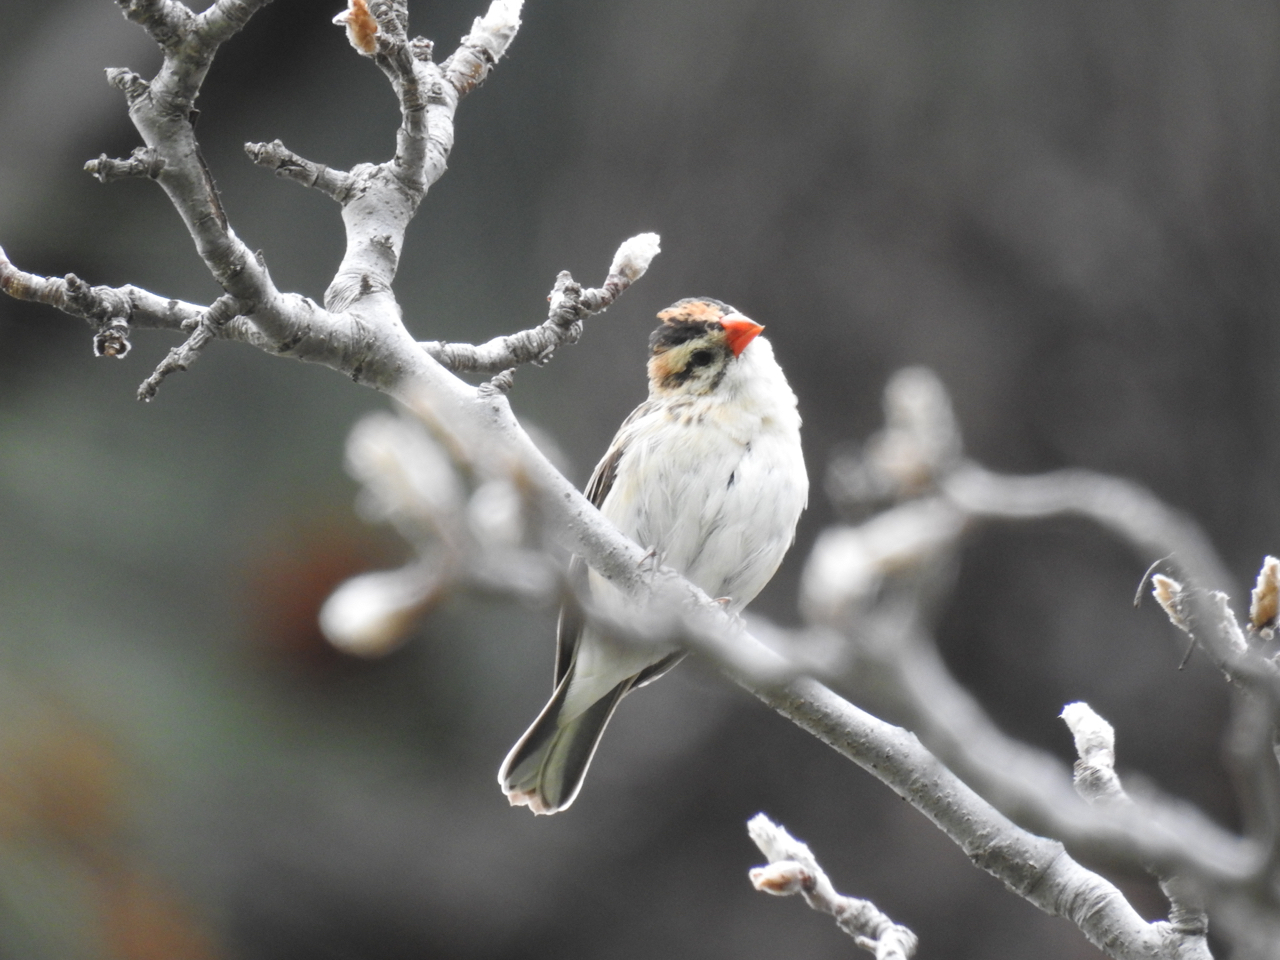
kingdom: Animalia
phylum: Chordata
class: Aves
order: Passeriformes
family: Viduidae
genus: Vidua
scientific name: Vidua macroura
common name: Pin-tailed whydah
